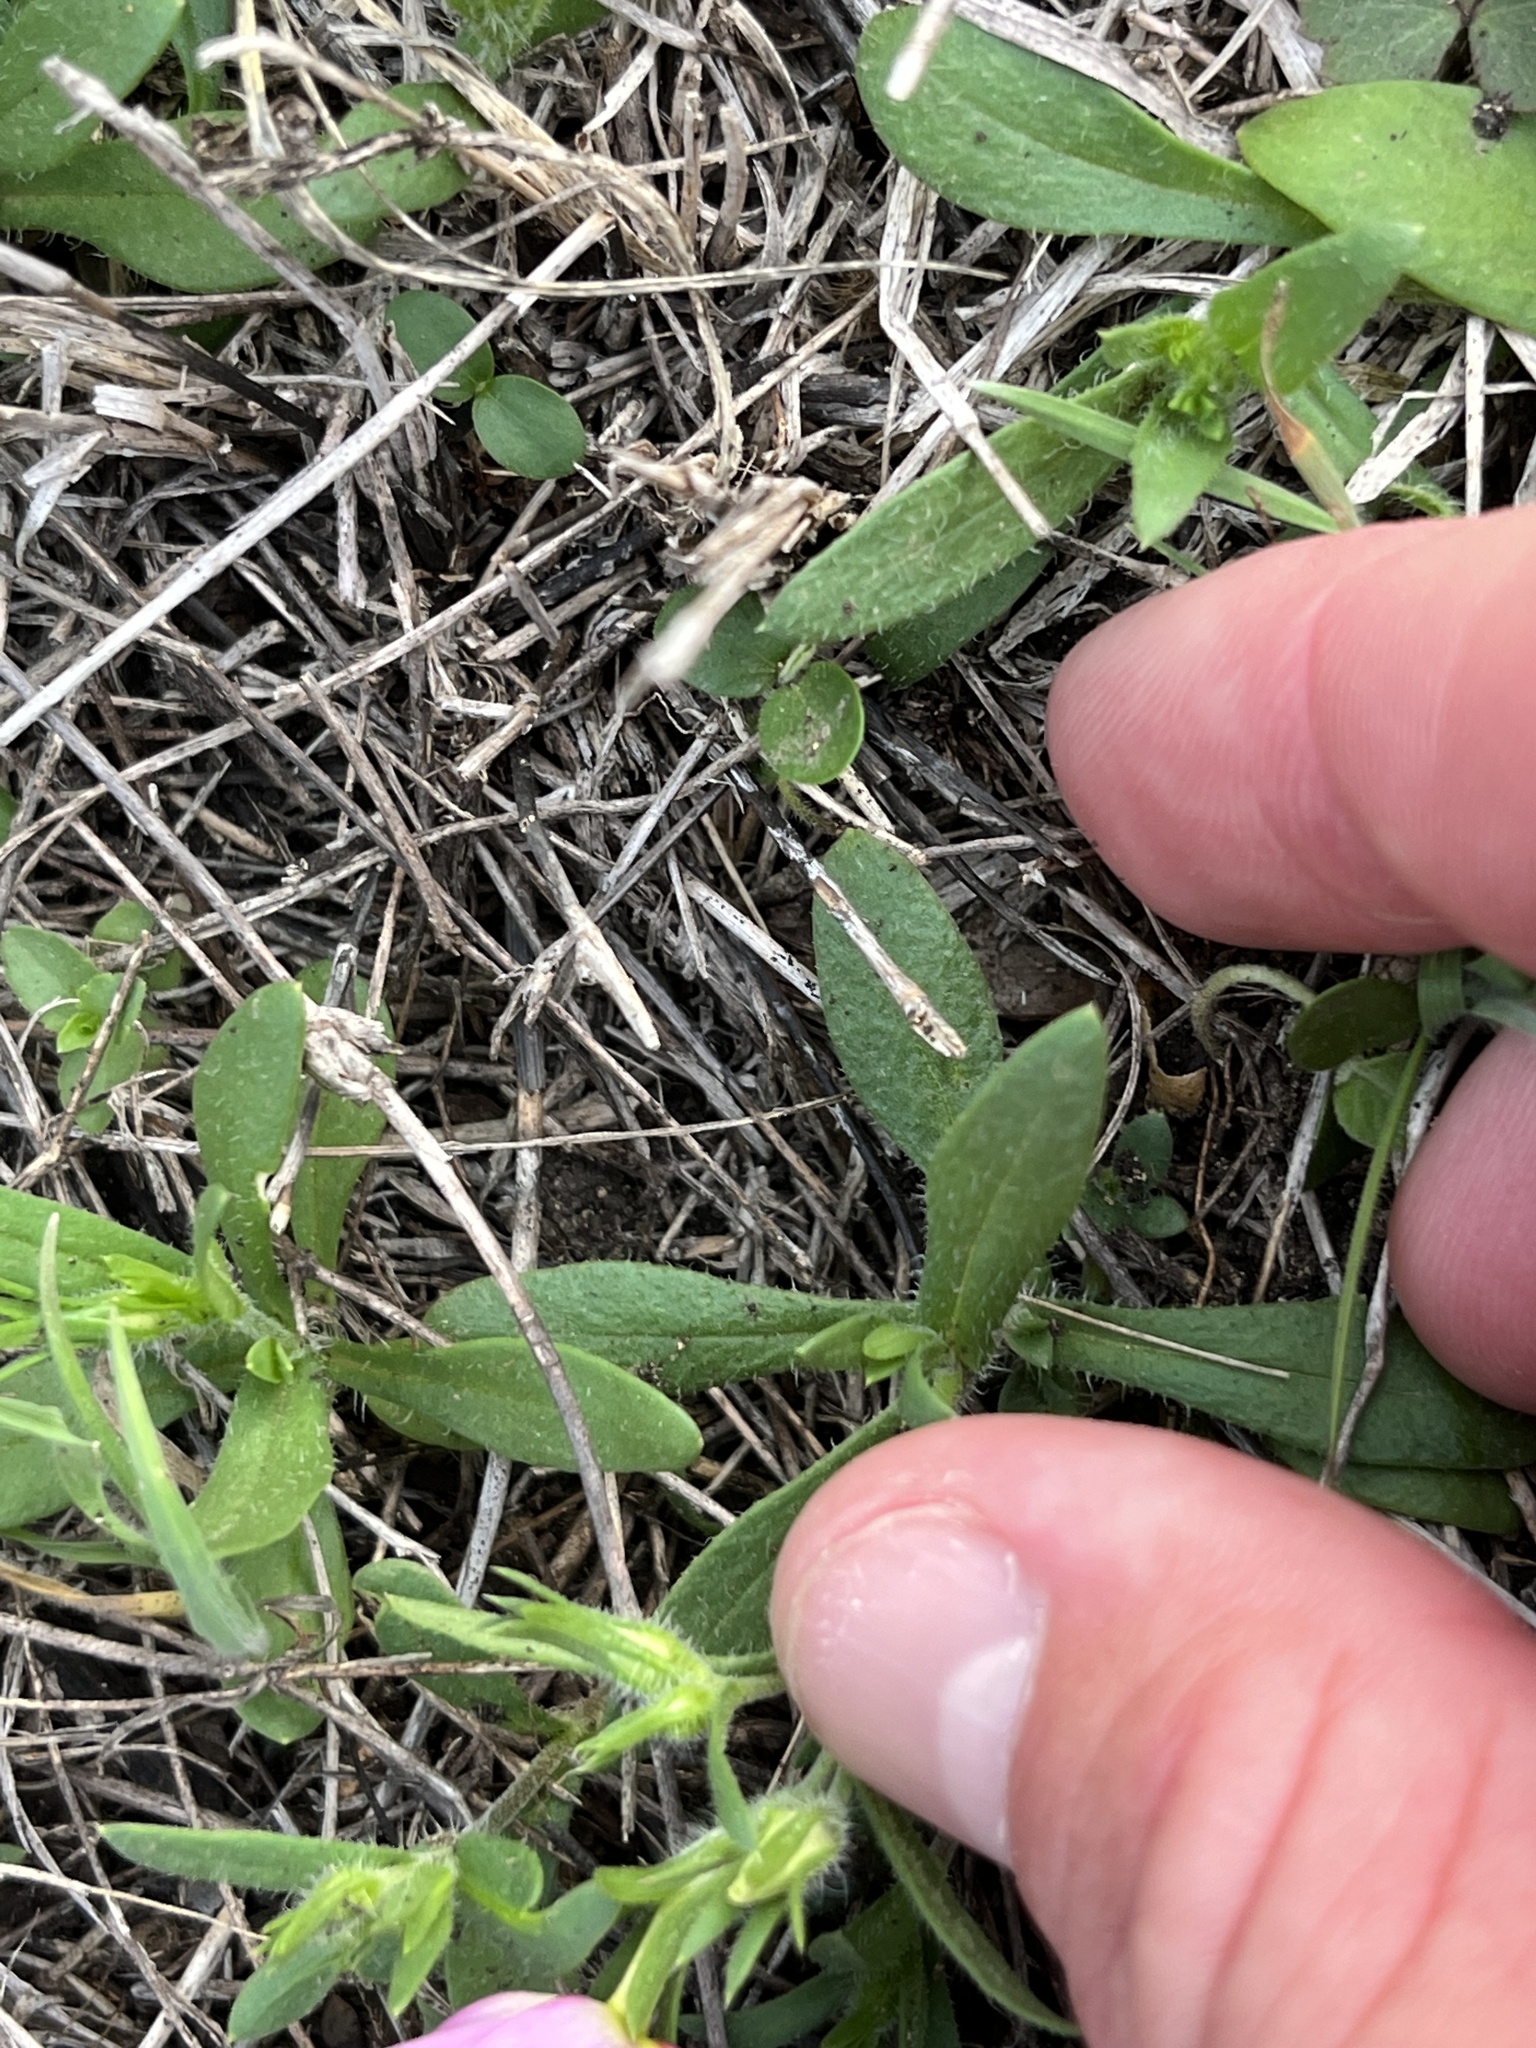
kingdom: Plantae
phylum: Tracheophyta
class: Magnoliopsida
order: Ericales
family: Polemoniaceae
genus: Phlox
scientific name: Phlox roemeriana
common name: Roemer's phlox
